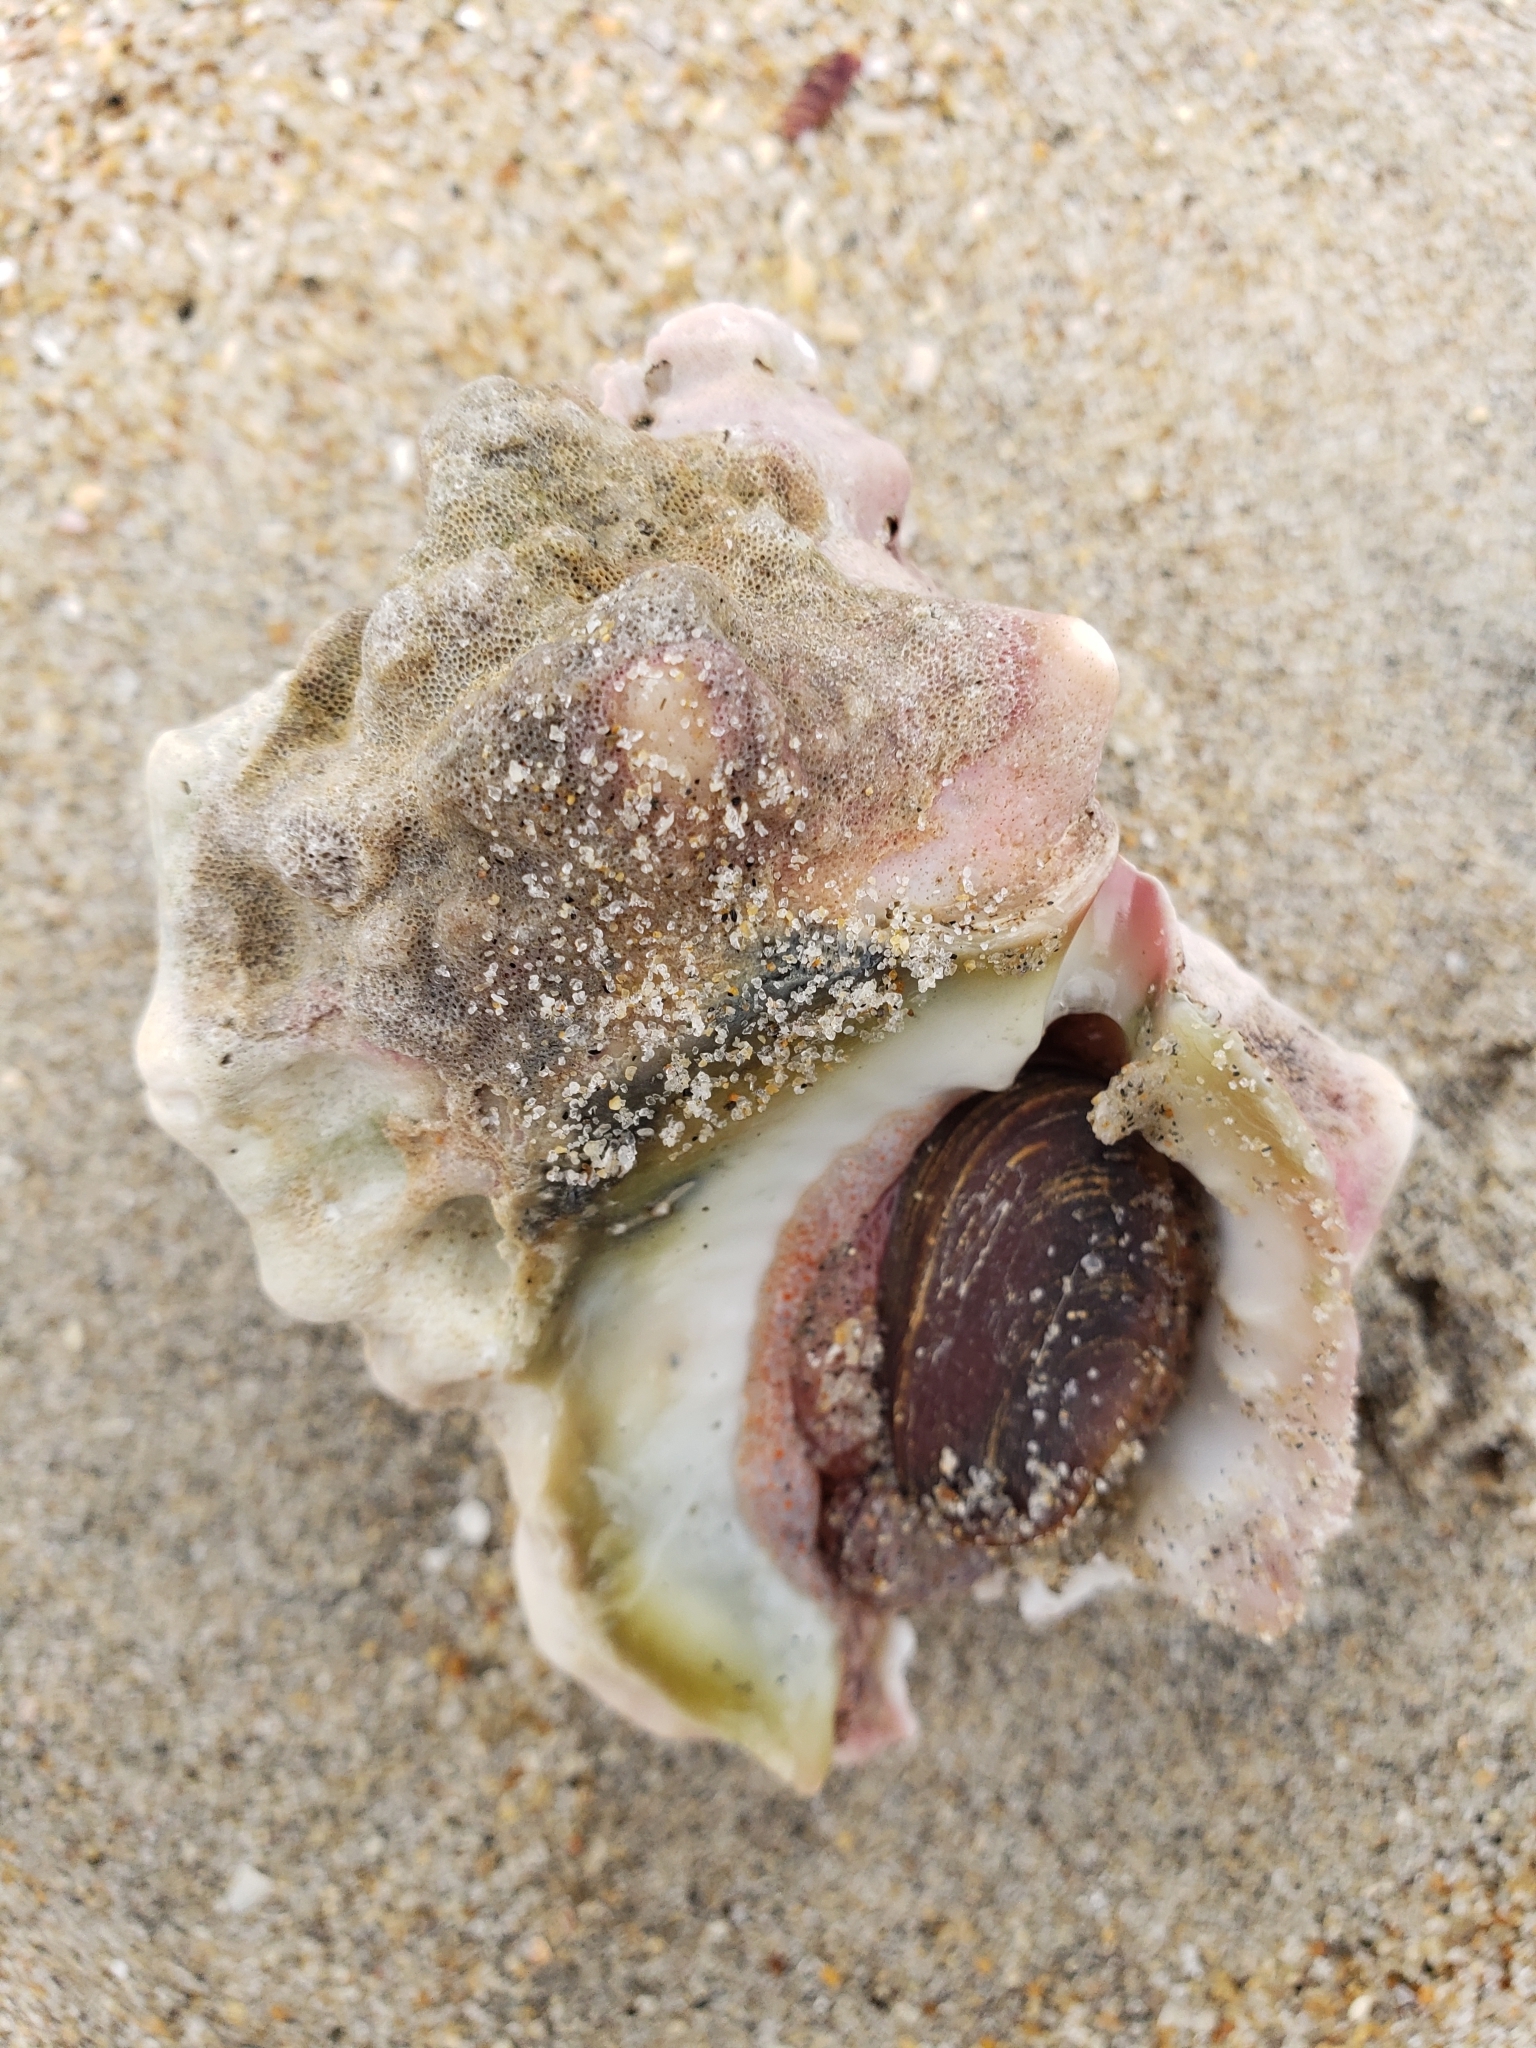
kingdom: Animalia
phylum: Mollusca
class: Gastropoda
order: Littorinimorpha
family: Bursidae
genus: Crossata
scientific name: Crossata californica
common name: California frogsnail
